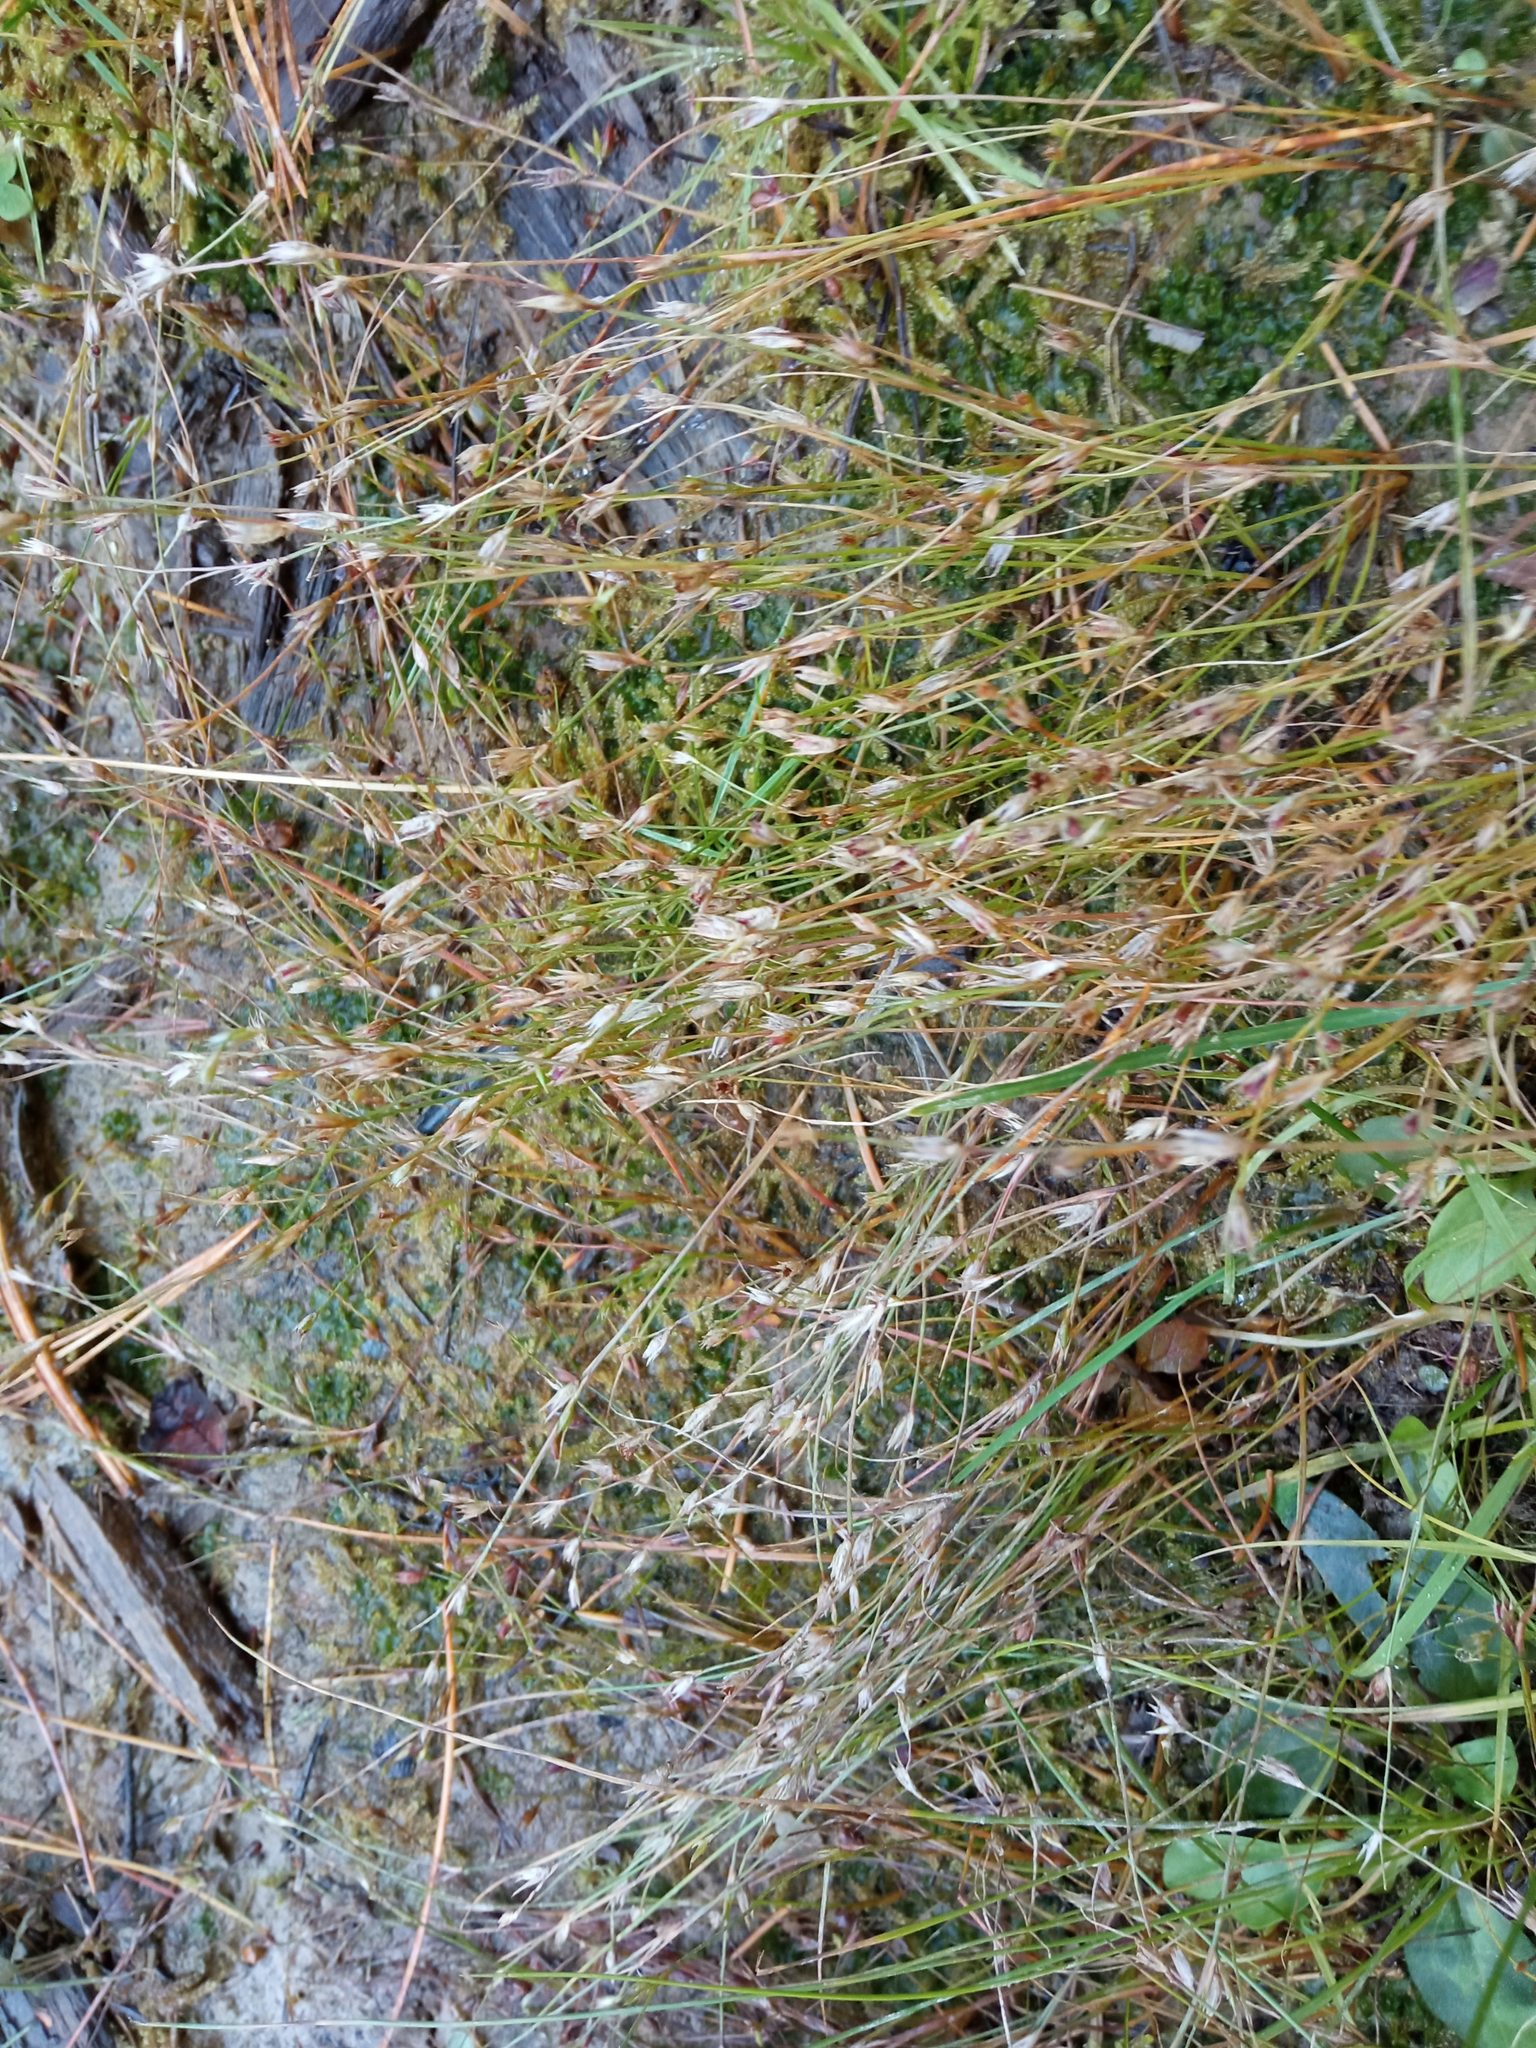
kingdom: Plantae
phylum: Tracheophyta
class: Liliopsida
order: Poales
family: Juncaceae
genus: Juncus
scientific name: Juncus bufonius
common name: Toad rush
